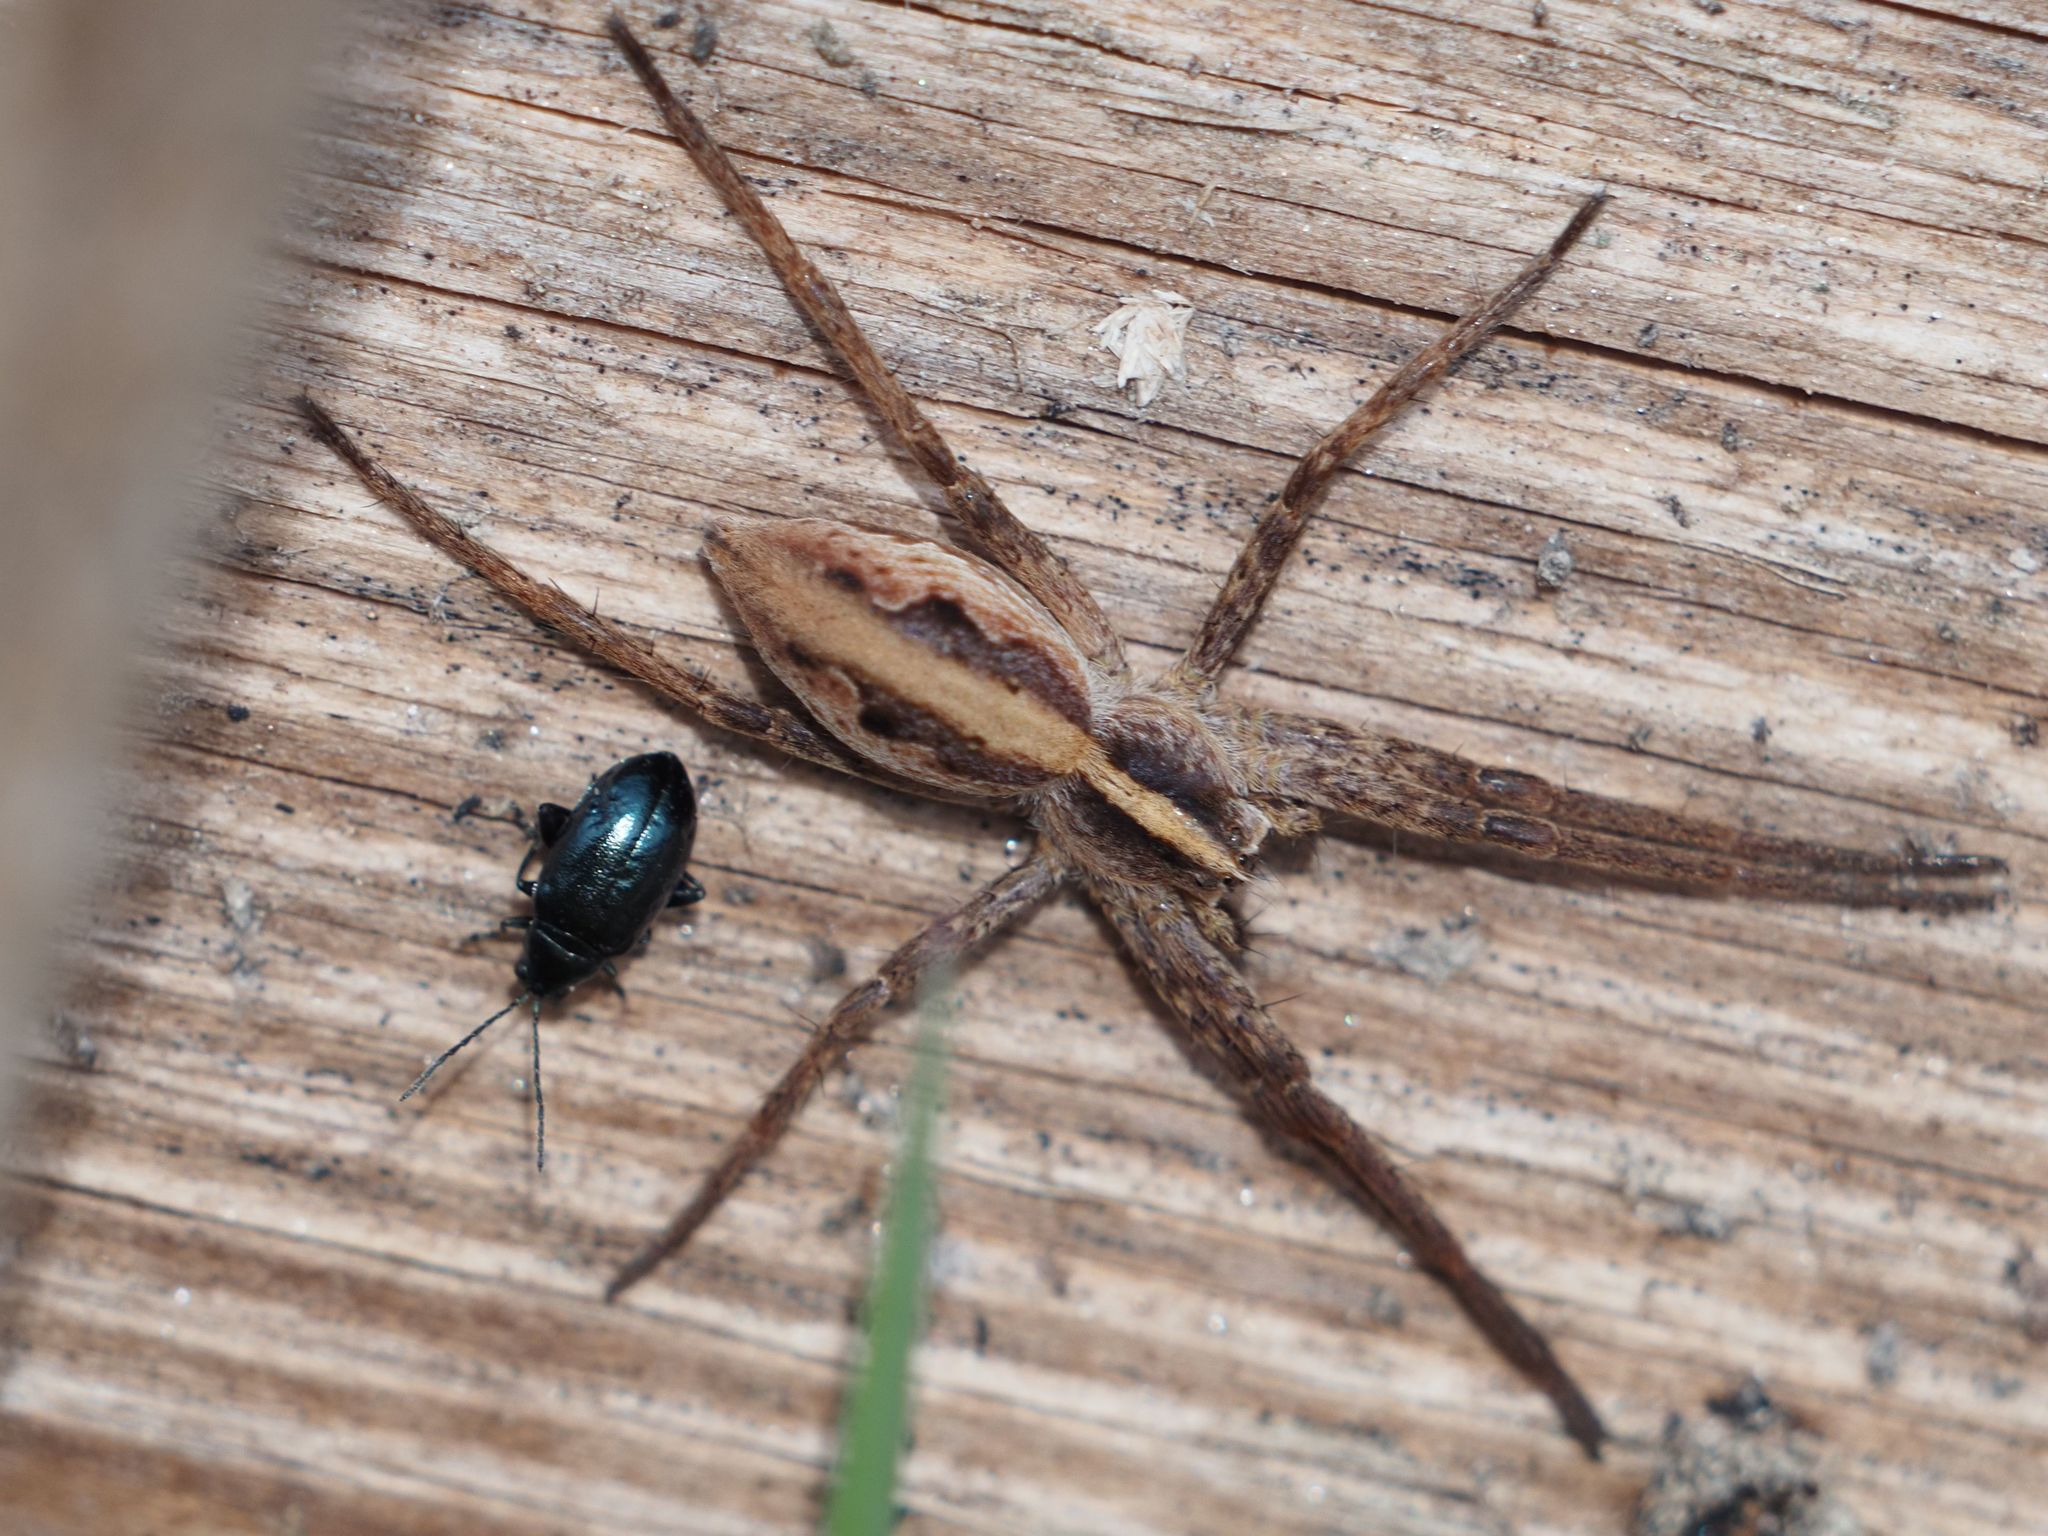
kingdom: Animalia
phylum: Arthropoda
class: Arachnida
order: Araneae
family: Pisauridae
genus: Pisaura
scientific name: Pisaura mirabilis
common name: Tent spider
